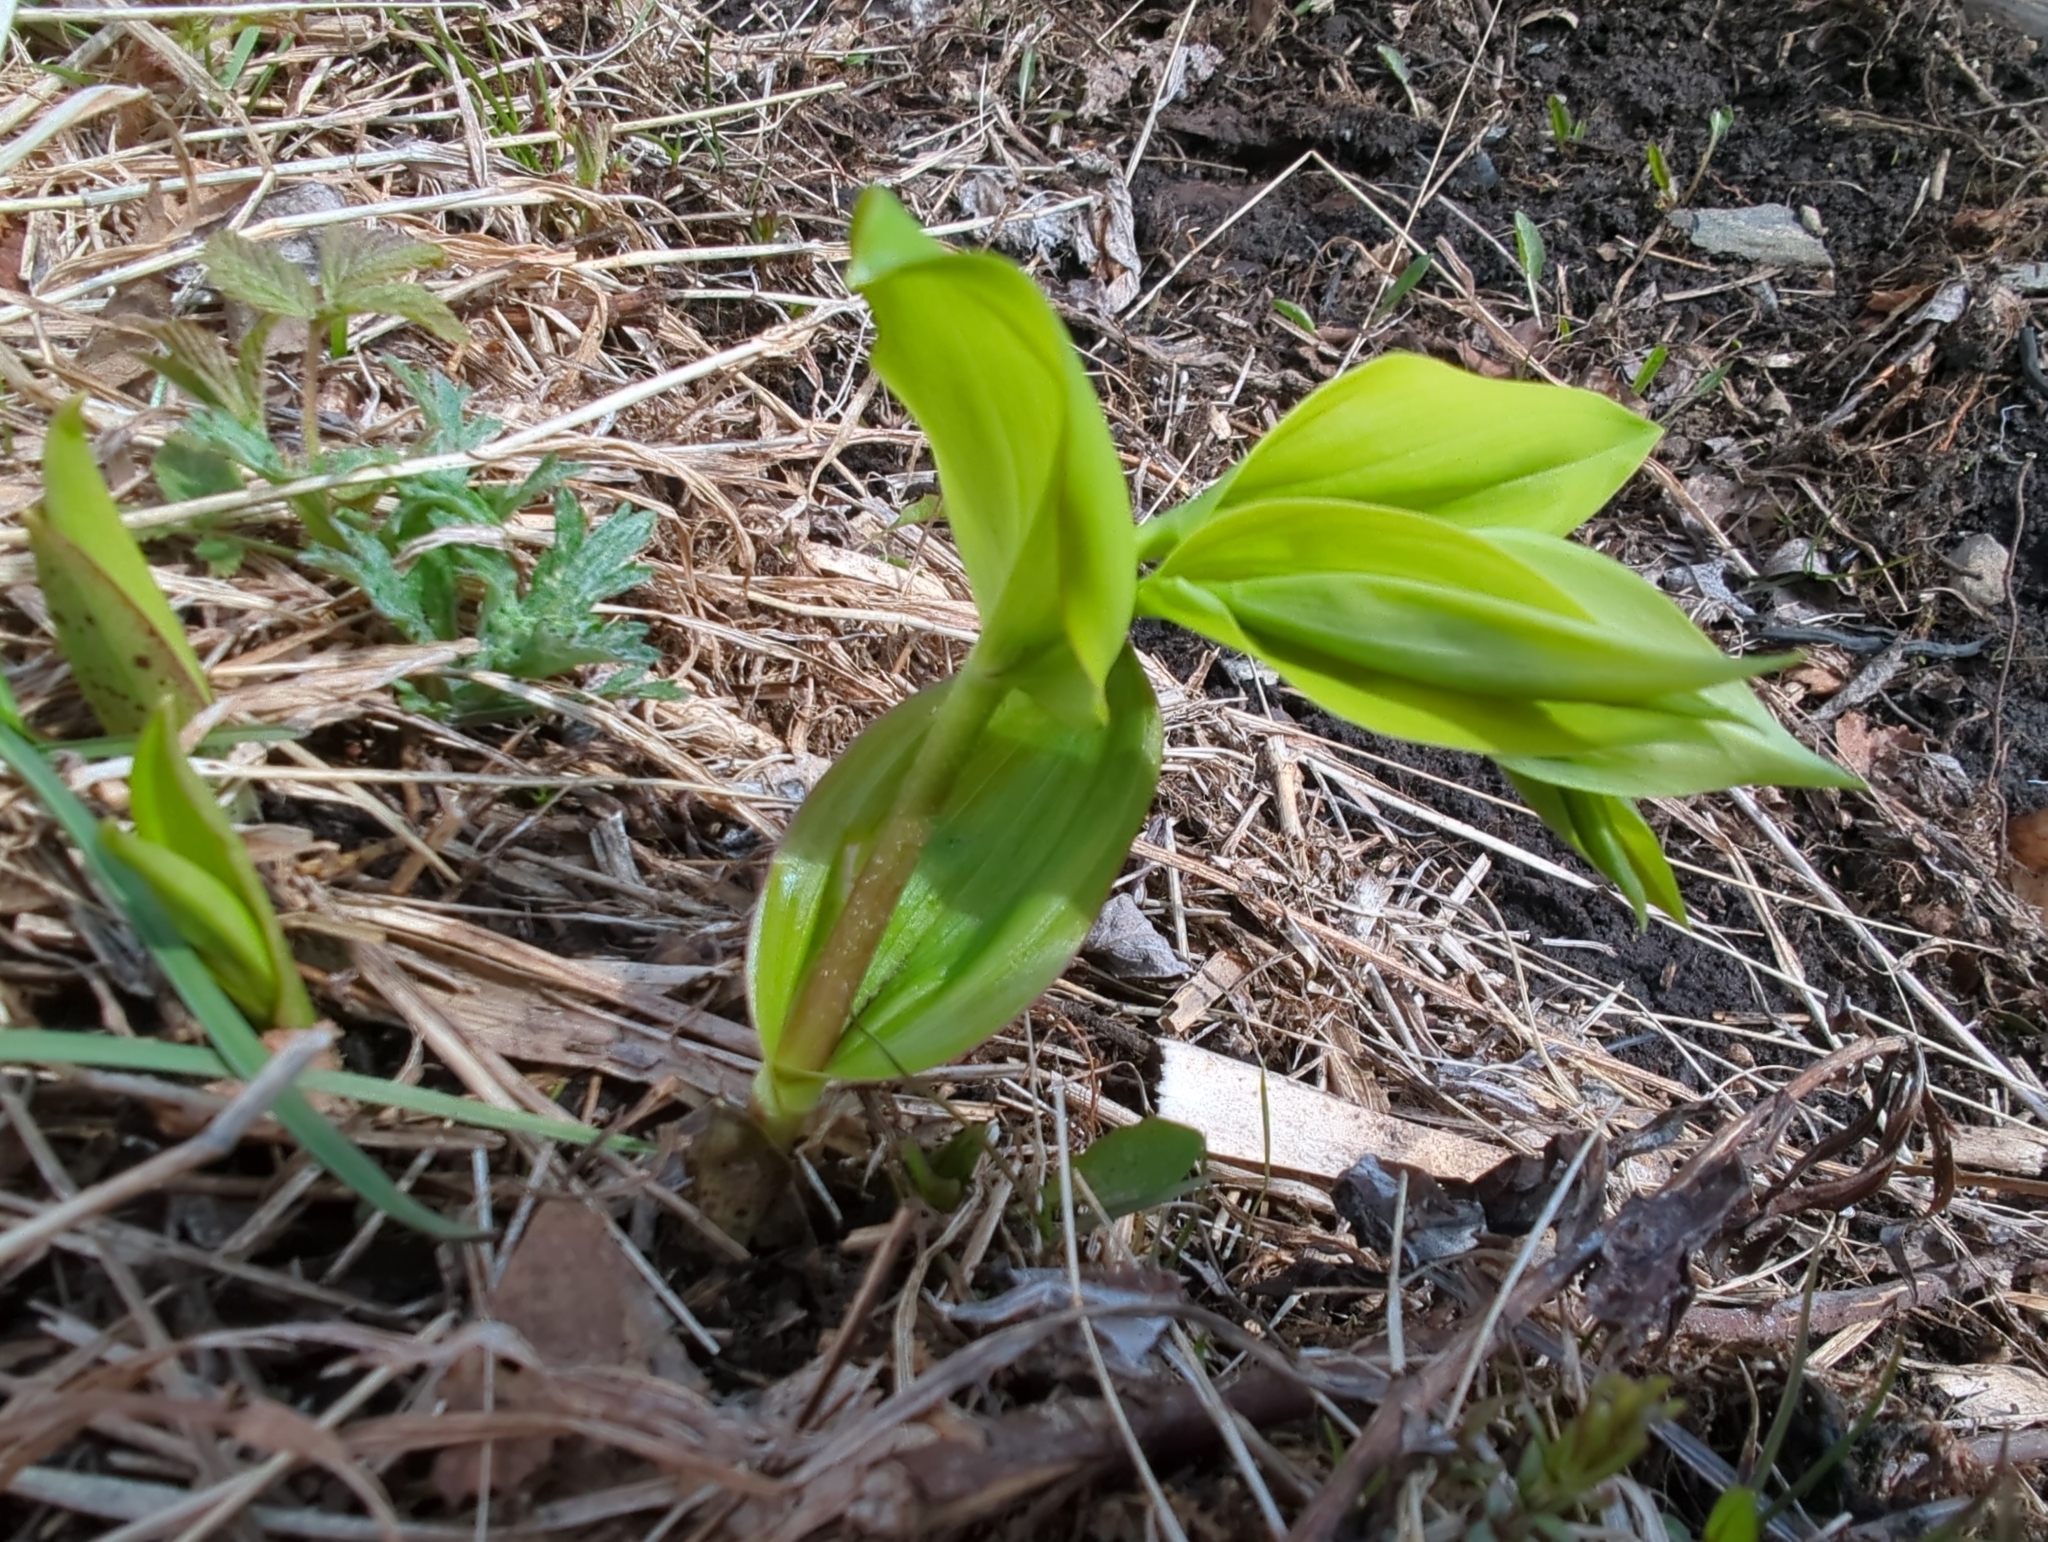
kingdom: Plantae
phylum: Tracheophyta
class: Liliopsida
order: Liliales
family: Liliaceae
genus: Streptopus
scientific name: Streptopus amplexifolius
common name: Clasp twisted stalk
